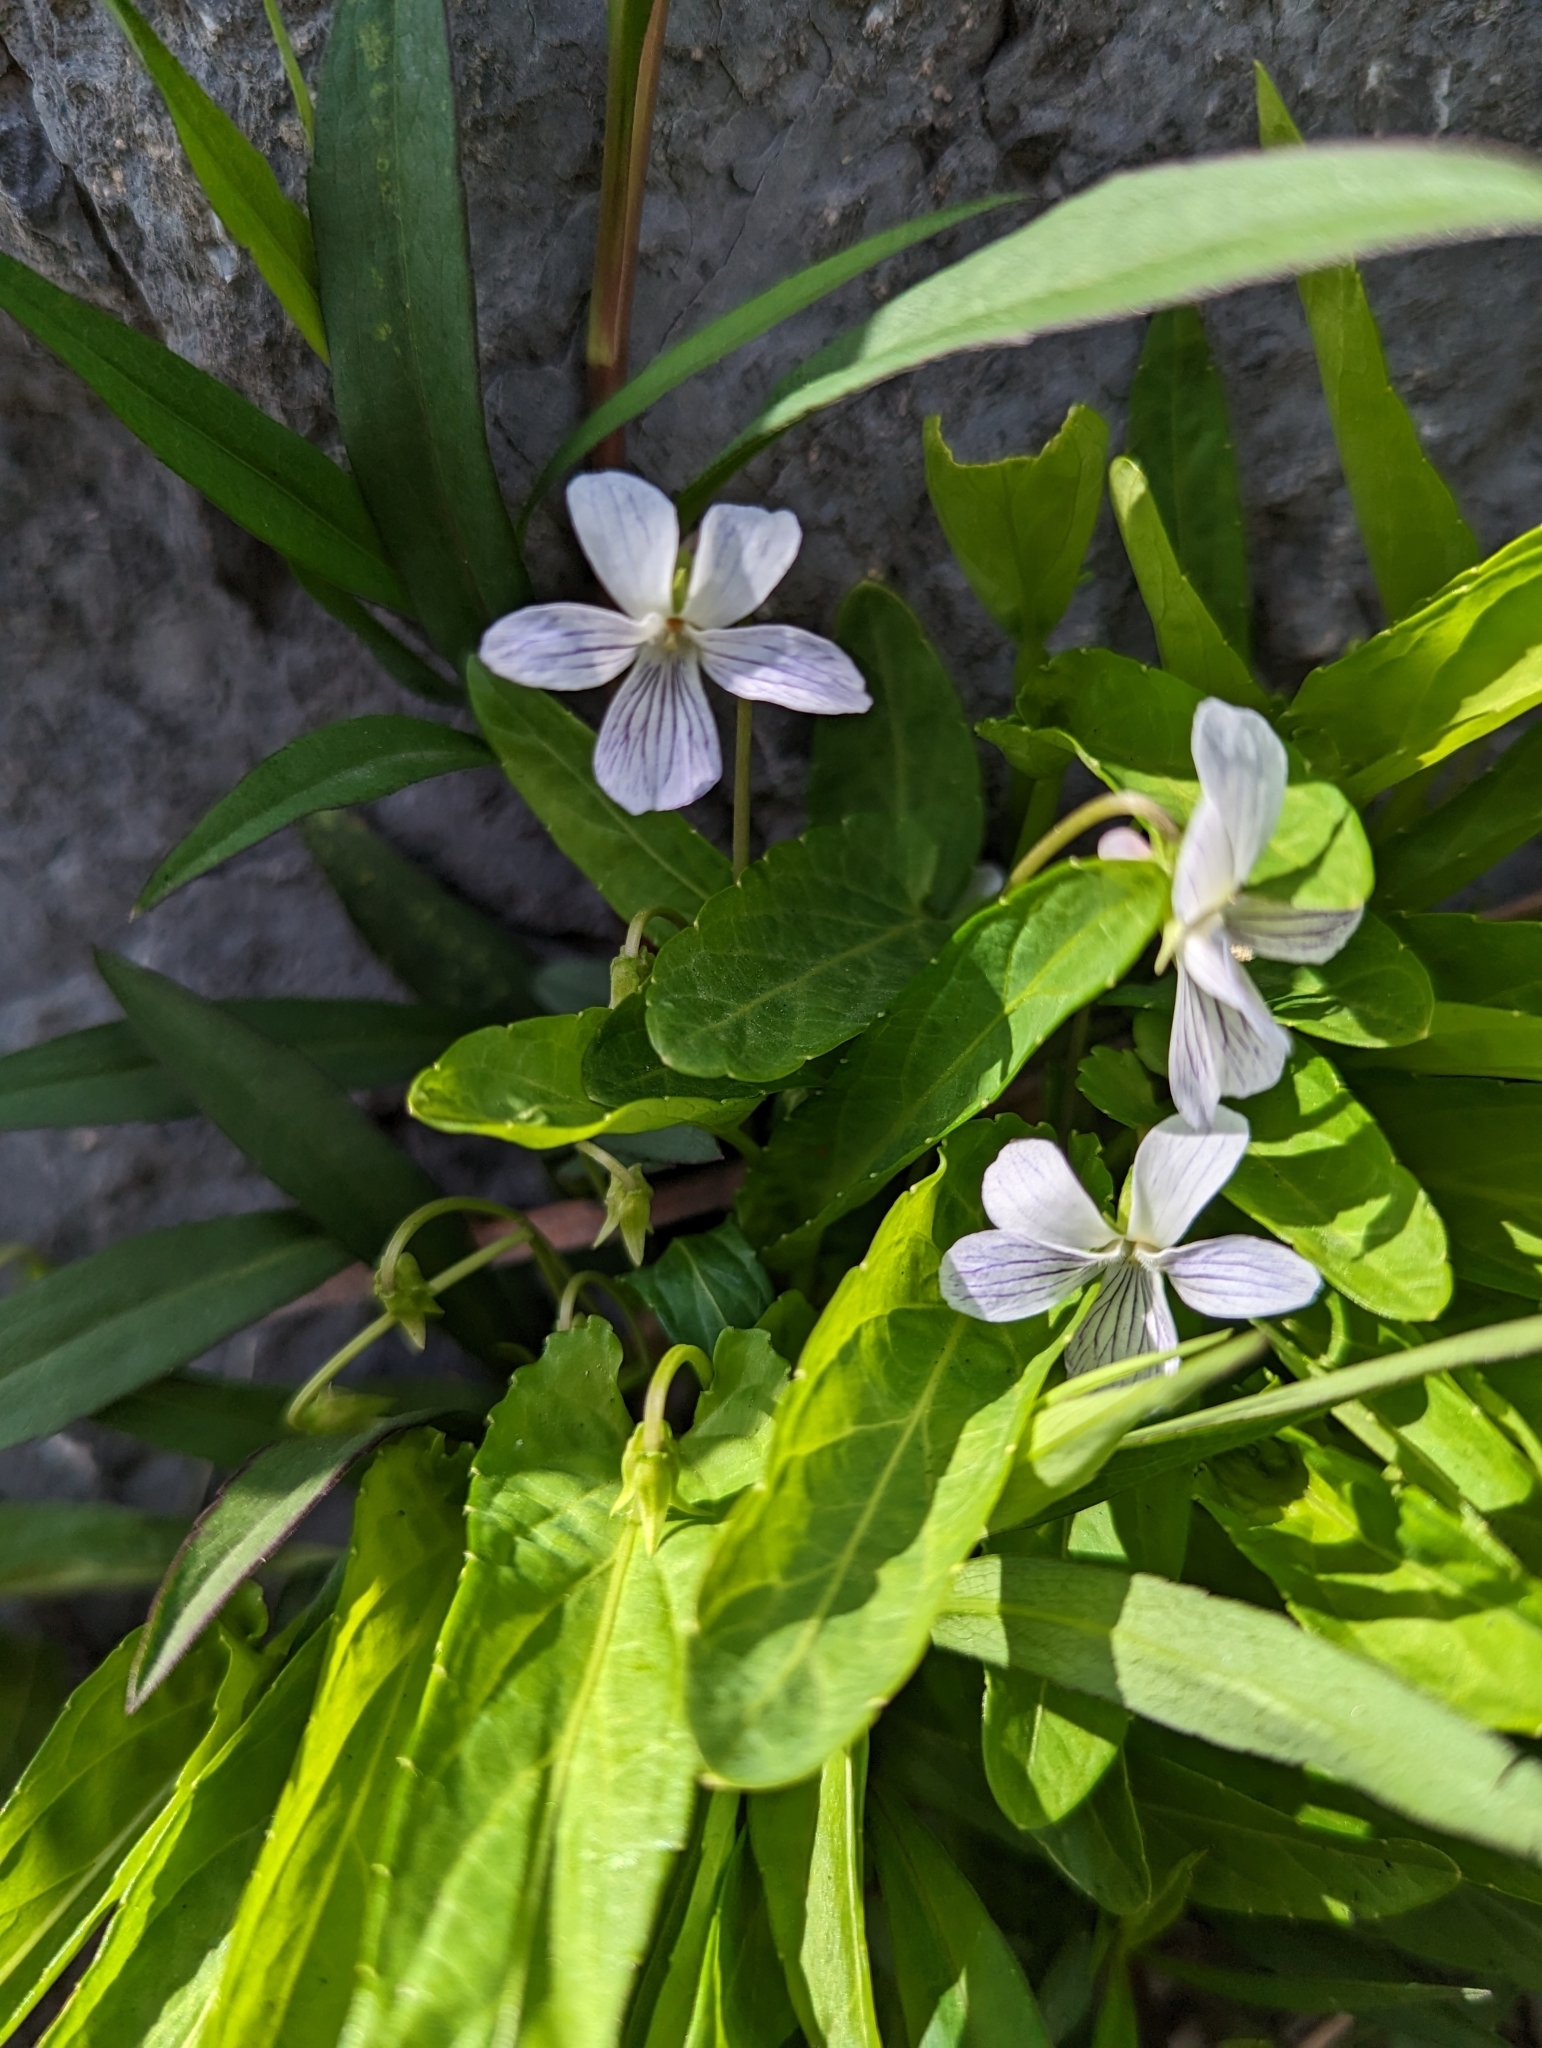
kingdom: Plantae
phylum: Tracheophyta
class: Magnoliopsida
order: Malpighiales
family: Violaceae
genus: Viola
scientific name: Viola patrinii
